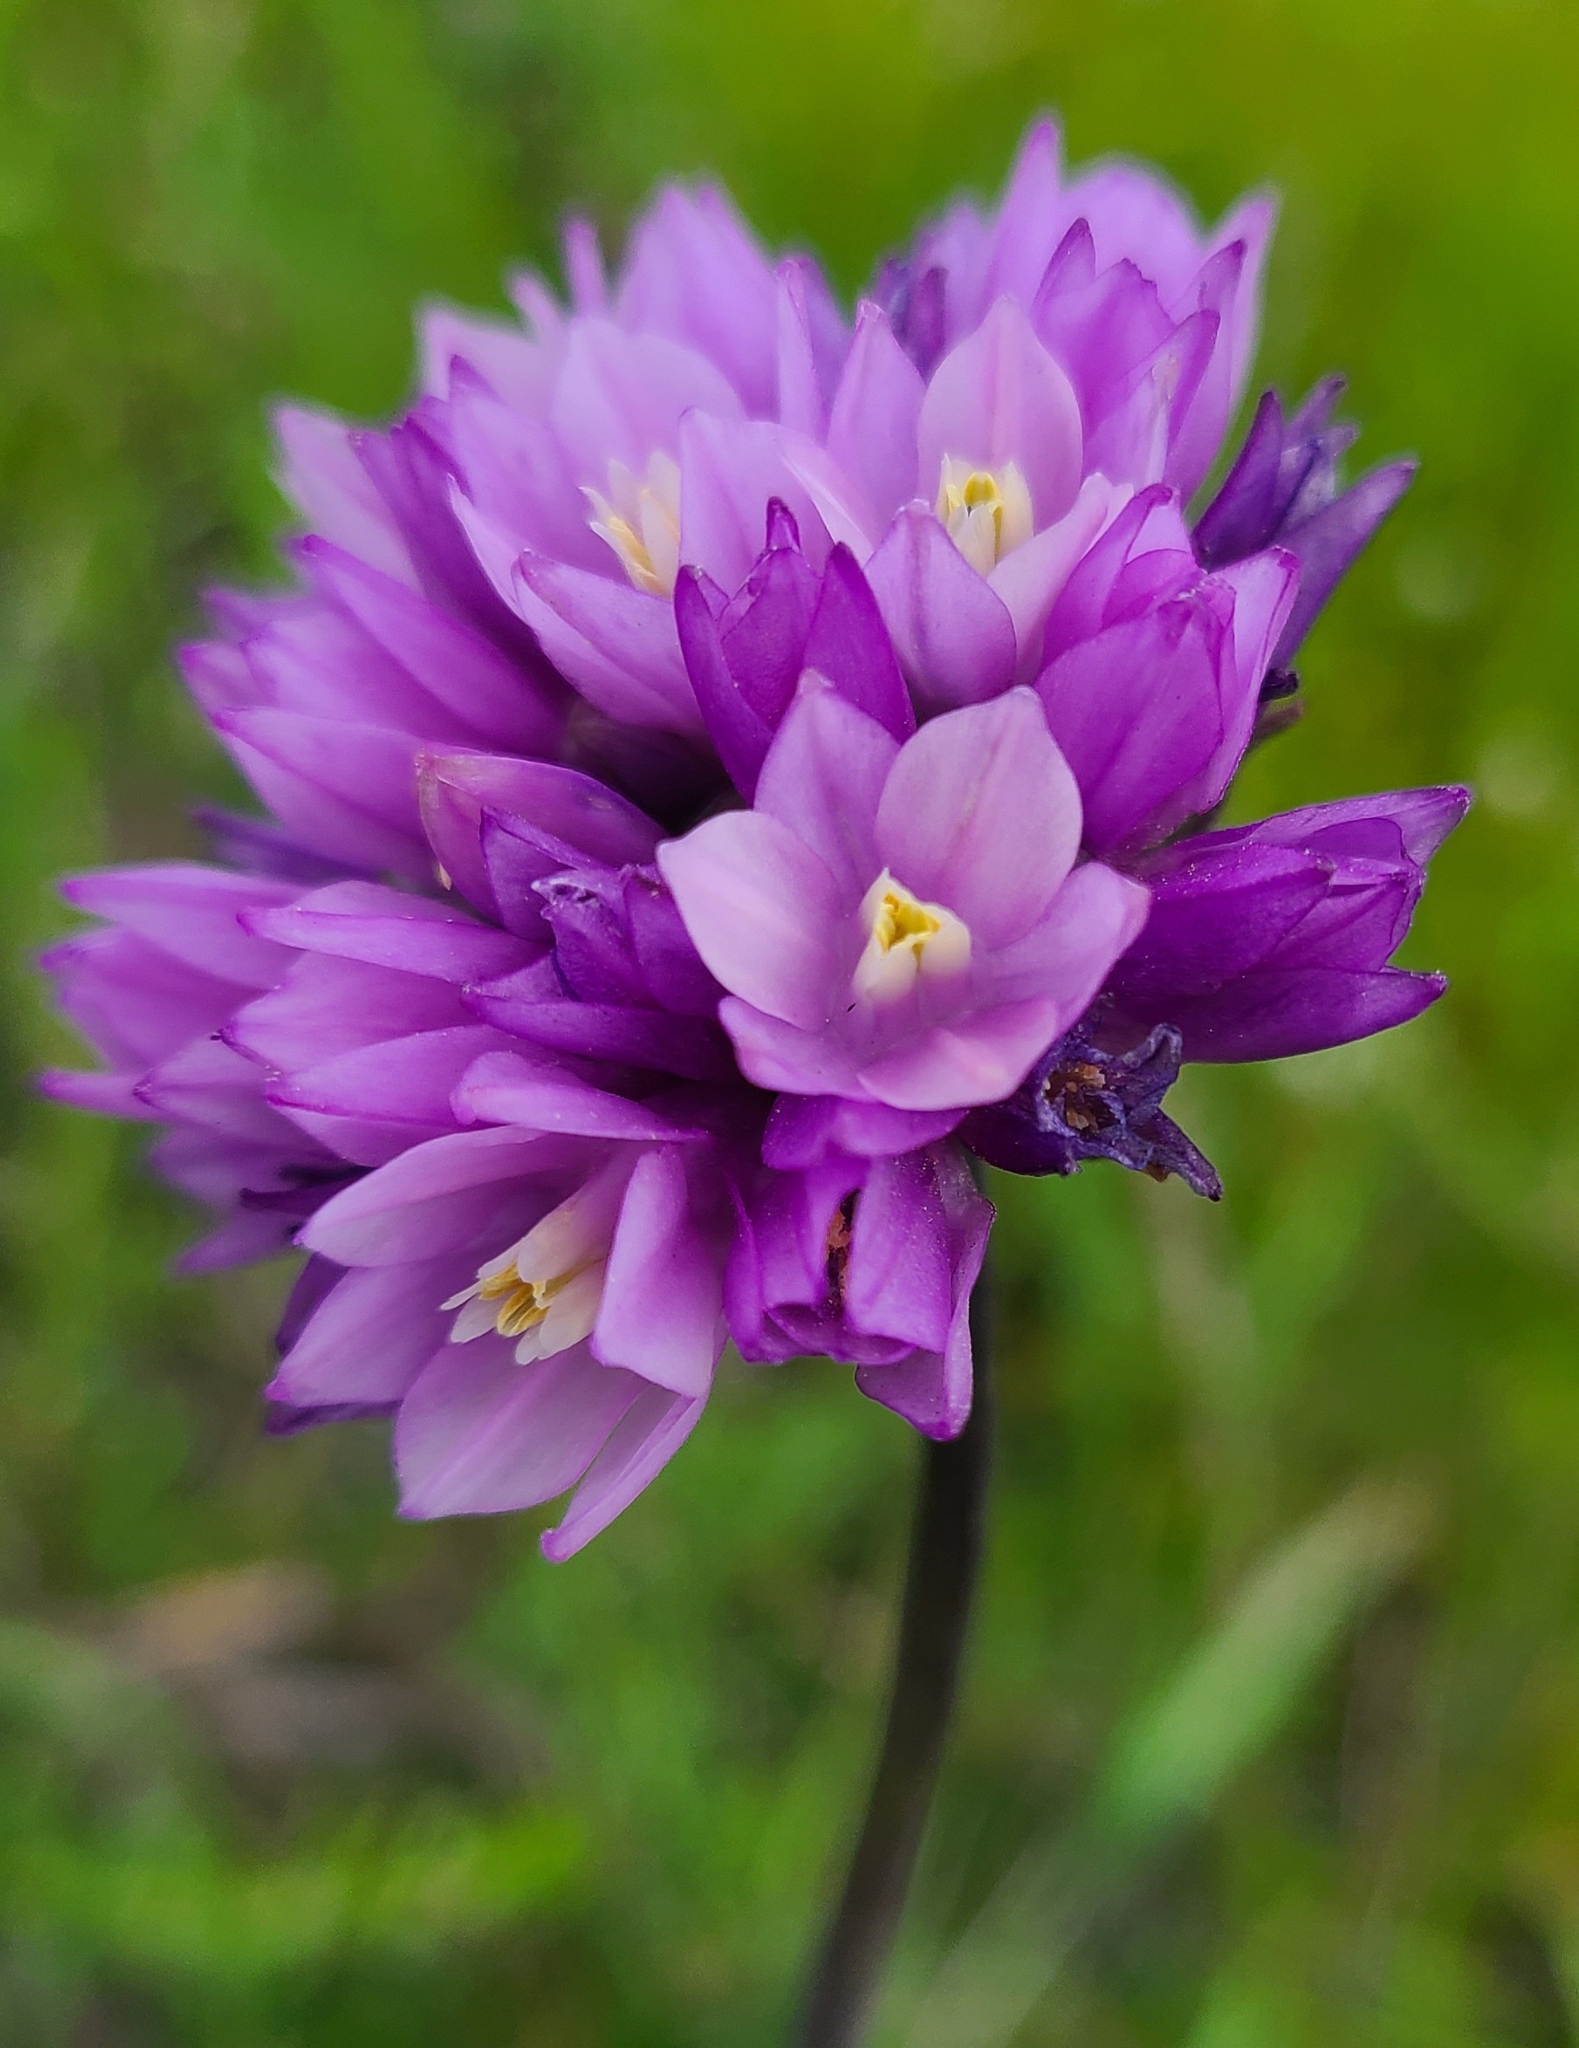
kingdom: Plantae
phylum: Tracheophyta
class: Liliopsida
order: Asparagales
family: Asparagaceae
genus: Dipterostemon
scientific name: Dipterostemon capitatus
